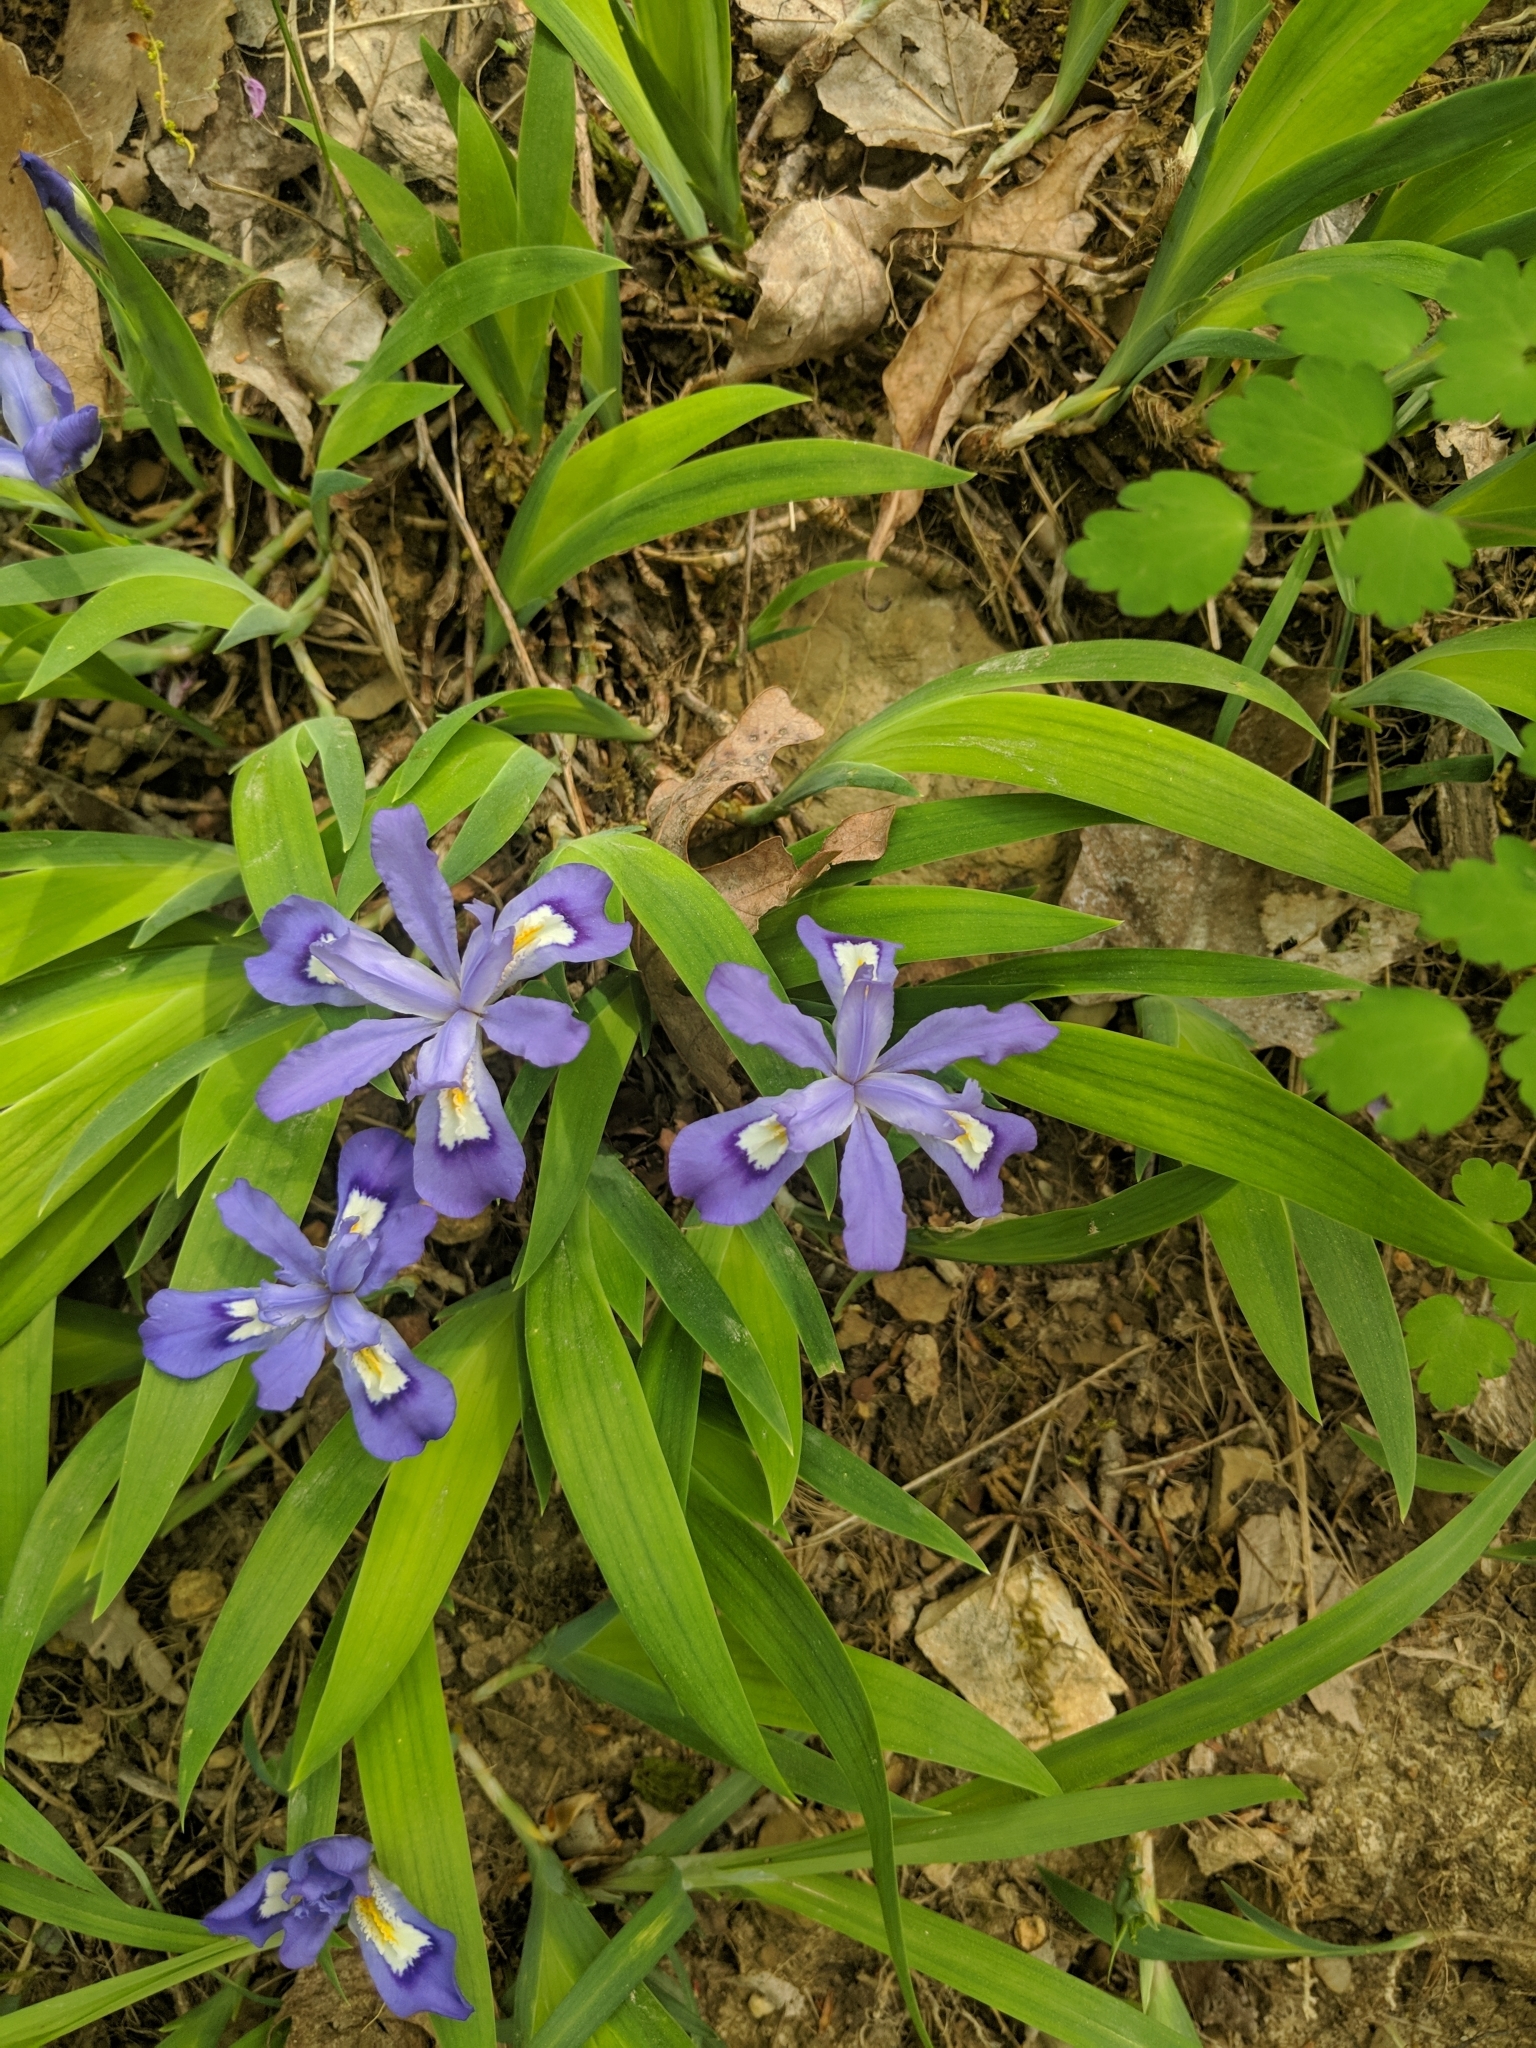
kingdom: Plantae
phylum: Tracheophyta
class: Liliopsida
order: Asparagales
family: Iridaceae
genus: Iris
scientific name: Iris cristata
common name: Crested iris
